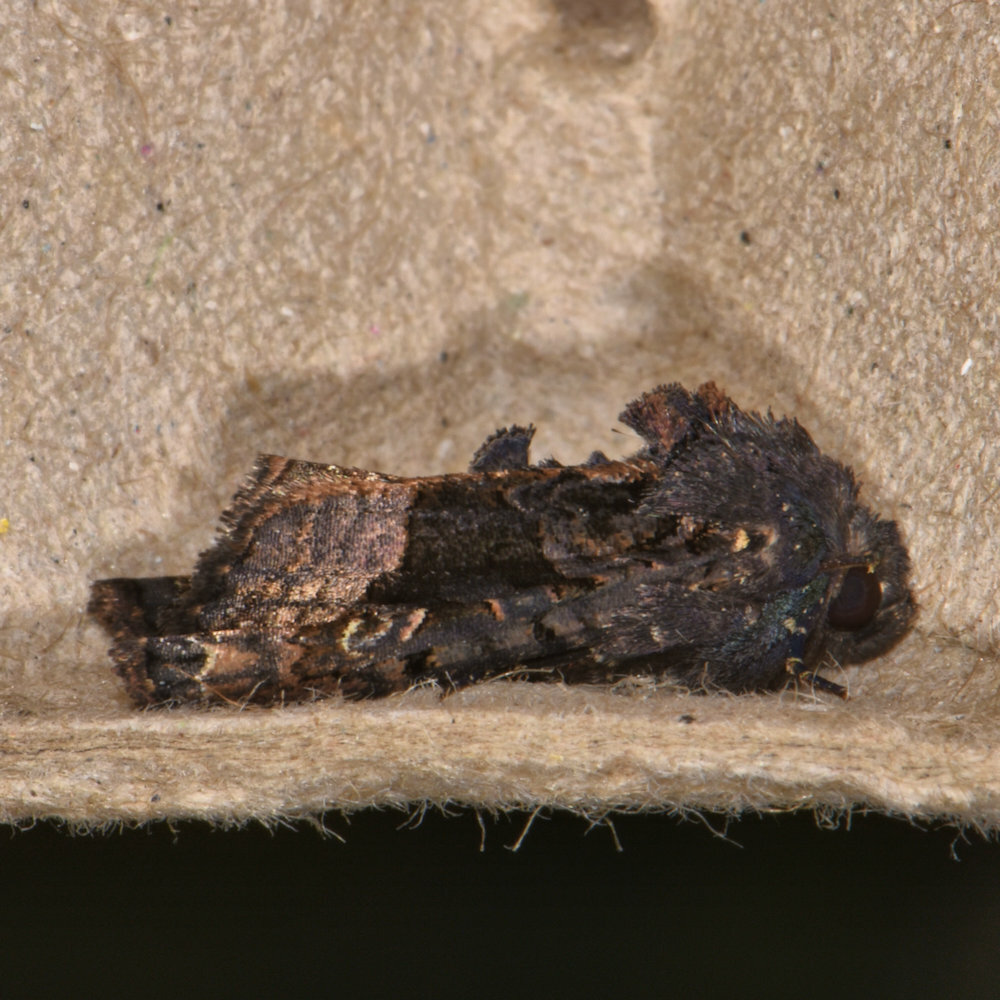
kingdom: Animalia
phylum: Arthropoda
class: Insecta
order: Lepidoptera
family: Noctuidae
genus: Euplexia
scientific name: Euplexia benesimilis
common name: American angle shades
